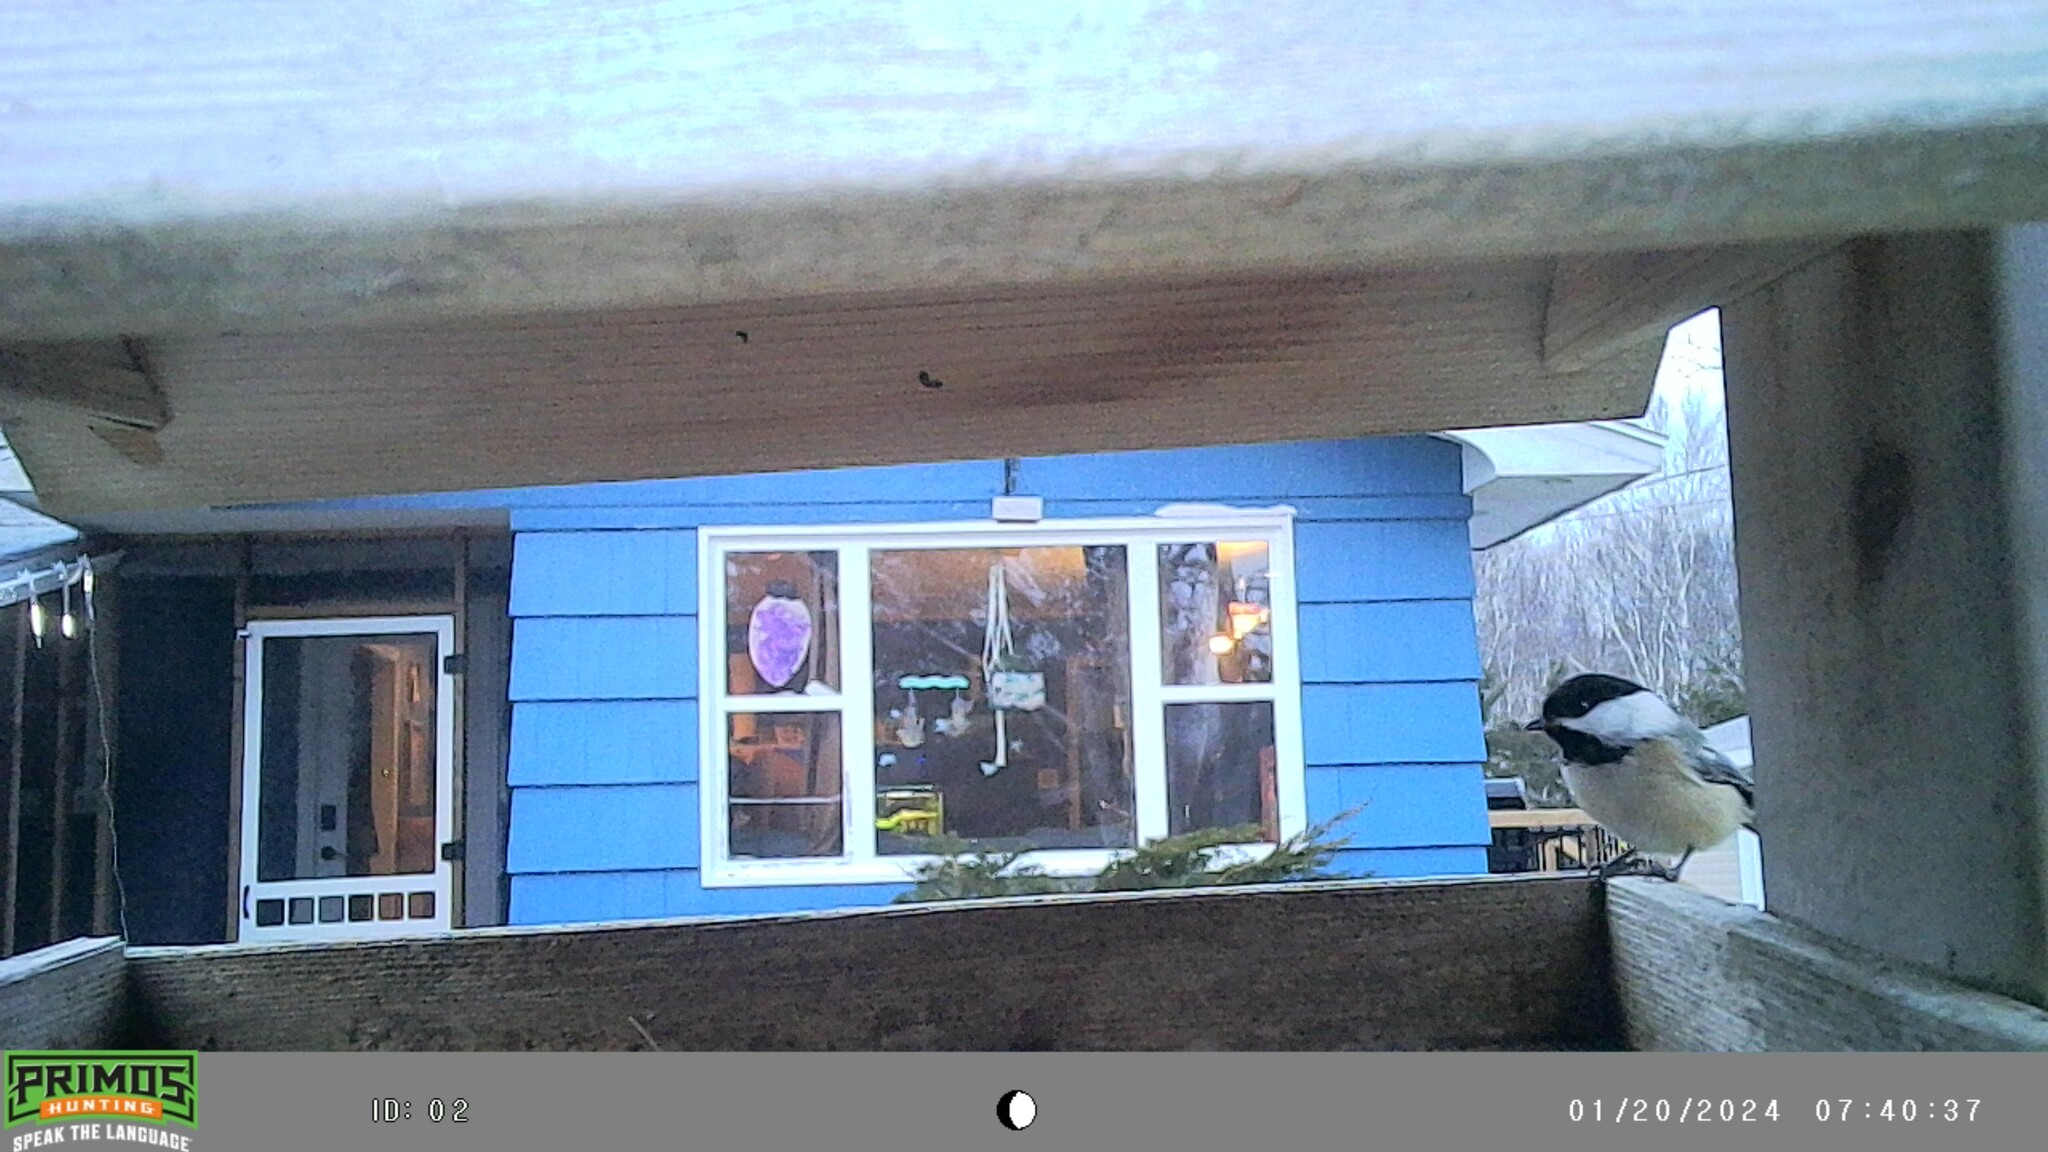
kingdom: Animalia
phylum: Chordata
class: Aves
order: Passeriformes
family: Paridae
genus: Poecile
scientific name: Poecile atricapillus
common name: Black-capped chickadee
